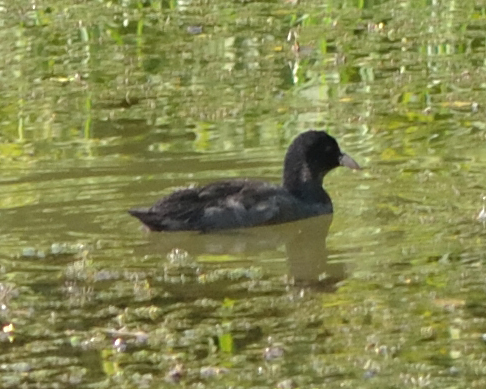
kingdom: Animalia
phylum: Chordata
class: Aves
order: Gruiformes
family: Rallidae
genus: Fulica
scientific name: Fulica atra
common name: Eurasian coot
